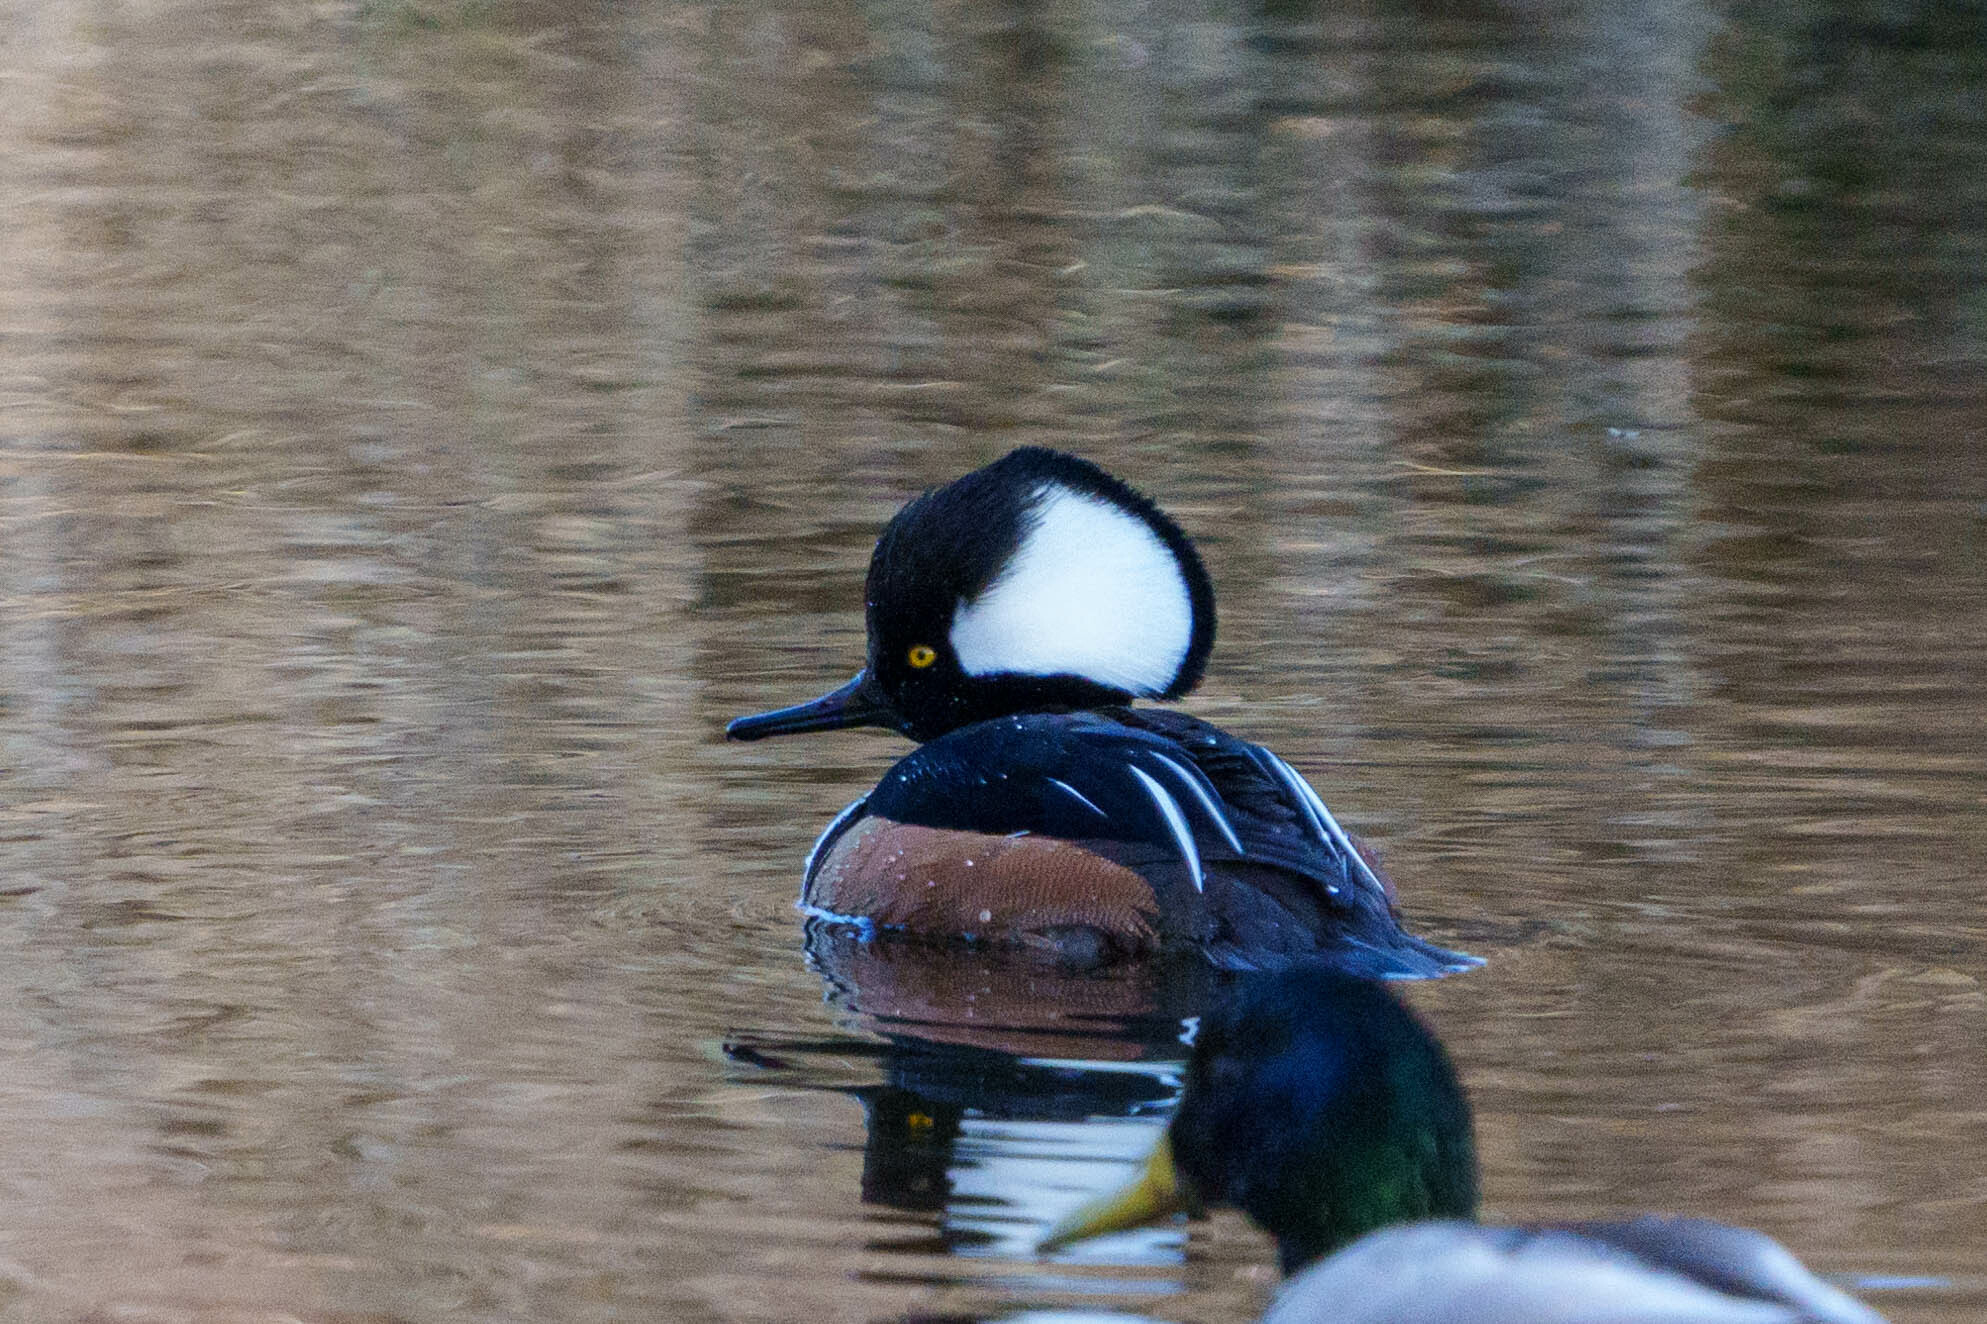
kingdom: Animalia
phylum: Chordata
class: Aves
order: Anseriformes
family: Anatidae
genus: Lophodytes
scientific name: Lophodytes cucullatus
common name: Hooded merganser
